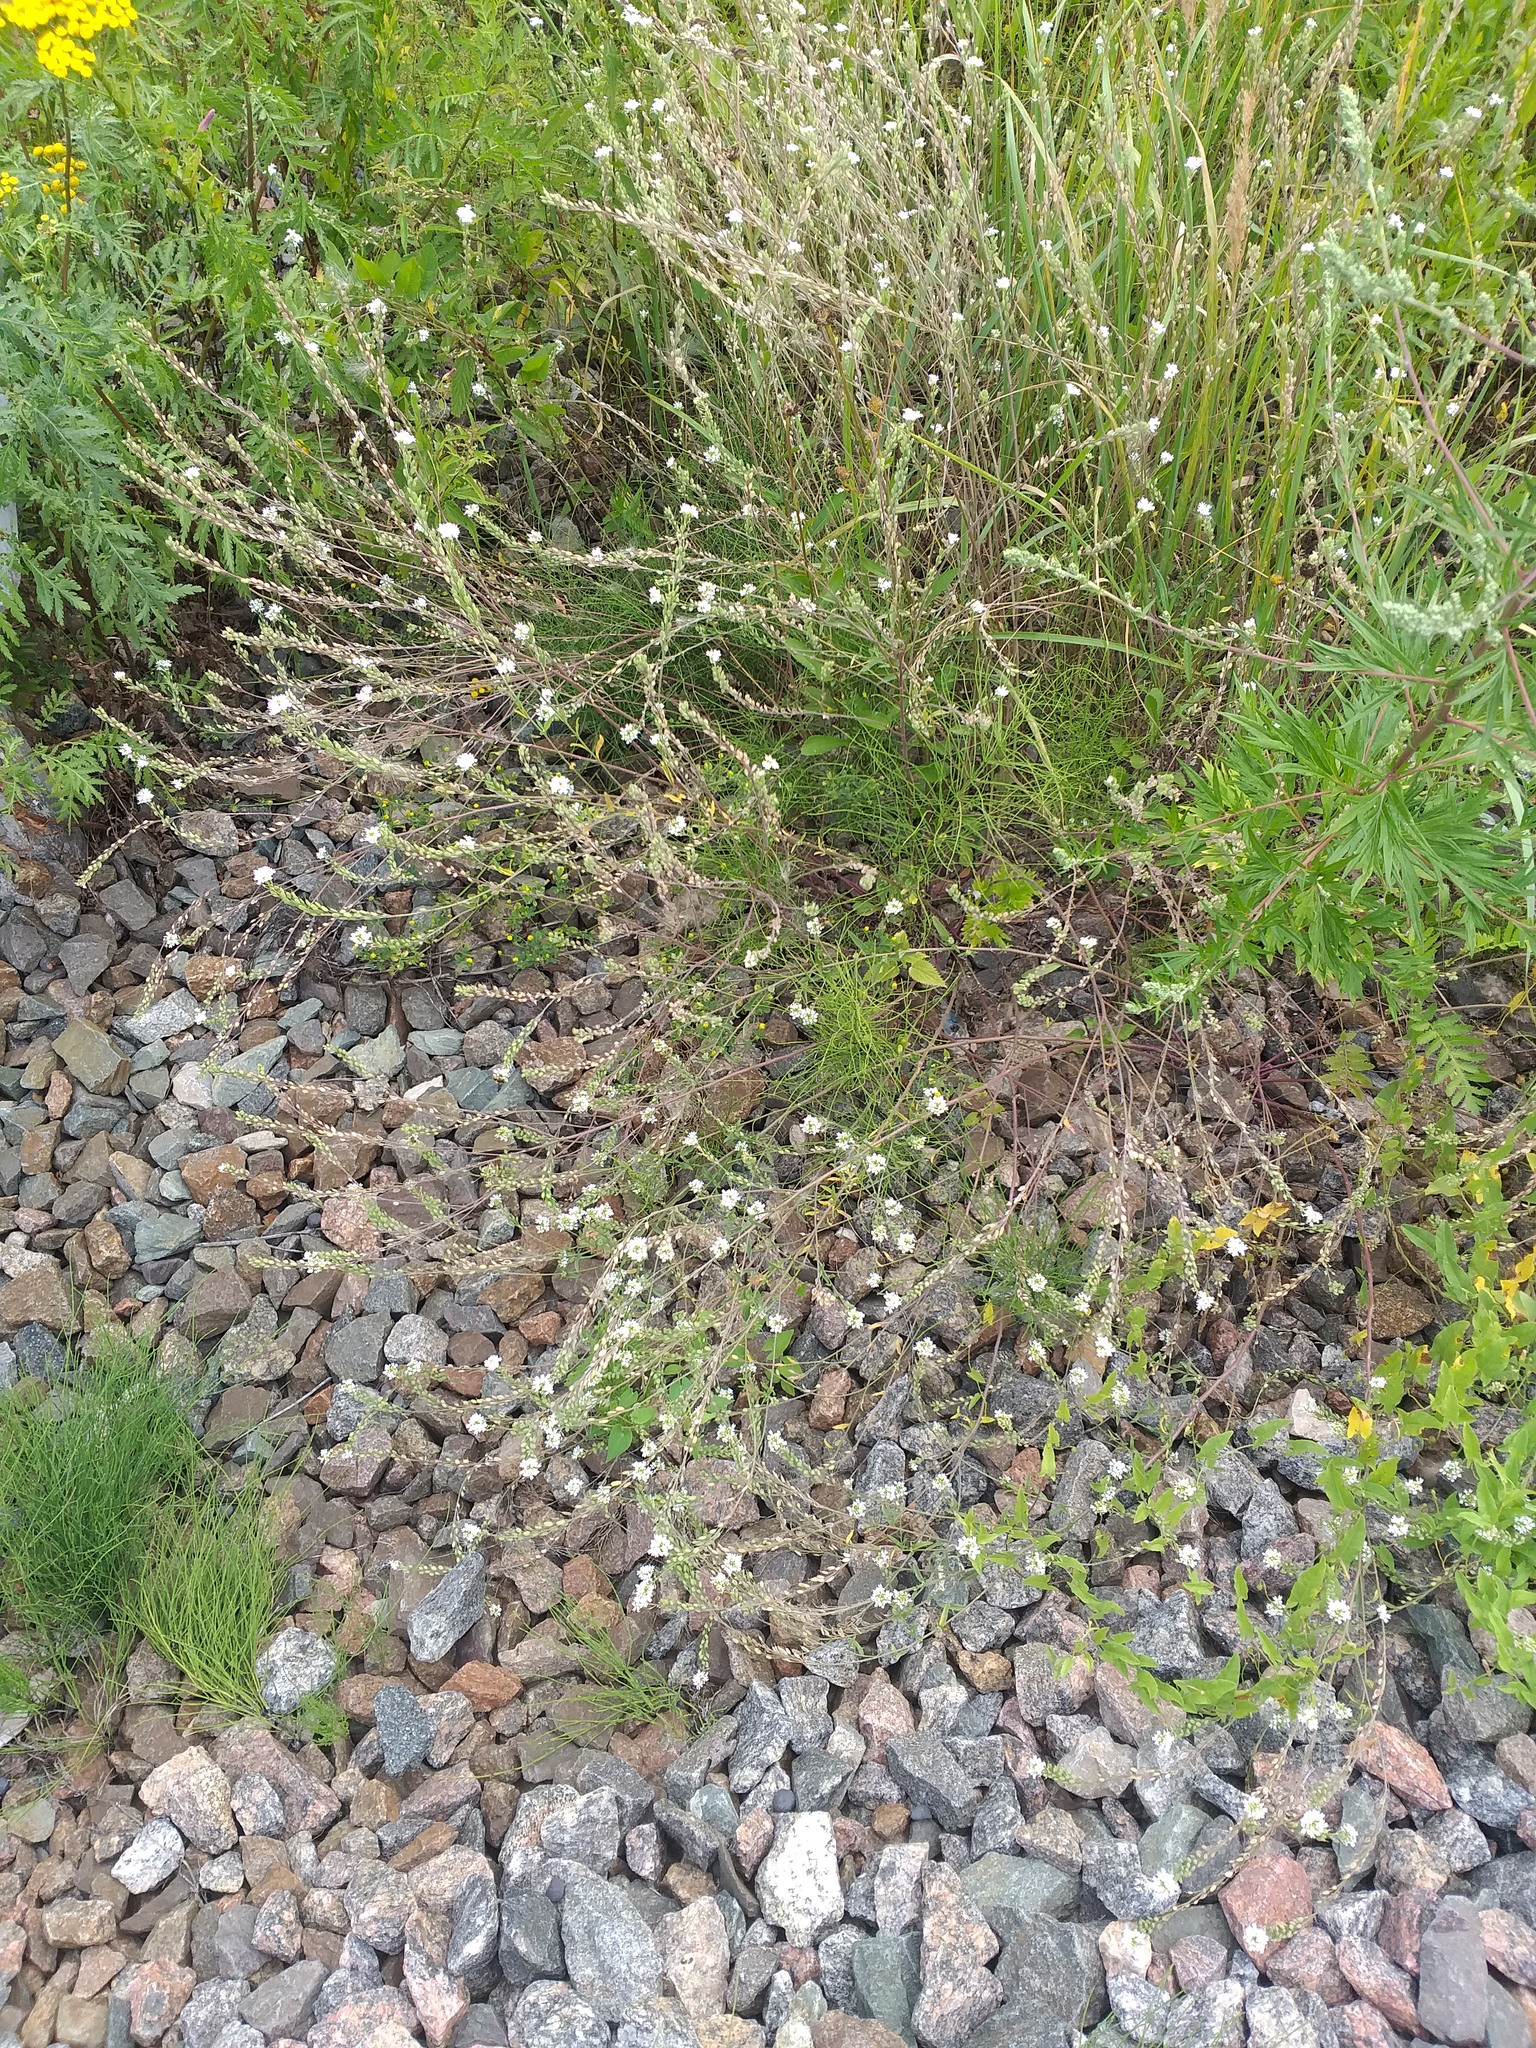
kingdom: Plantae
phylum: Tracheophyta
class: Magnoliopsida
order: Brassicales
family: Brassicaceae
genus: Berteroa
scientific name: Berteroa incana
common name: Hoary alison
